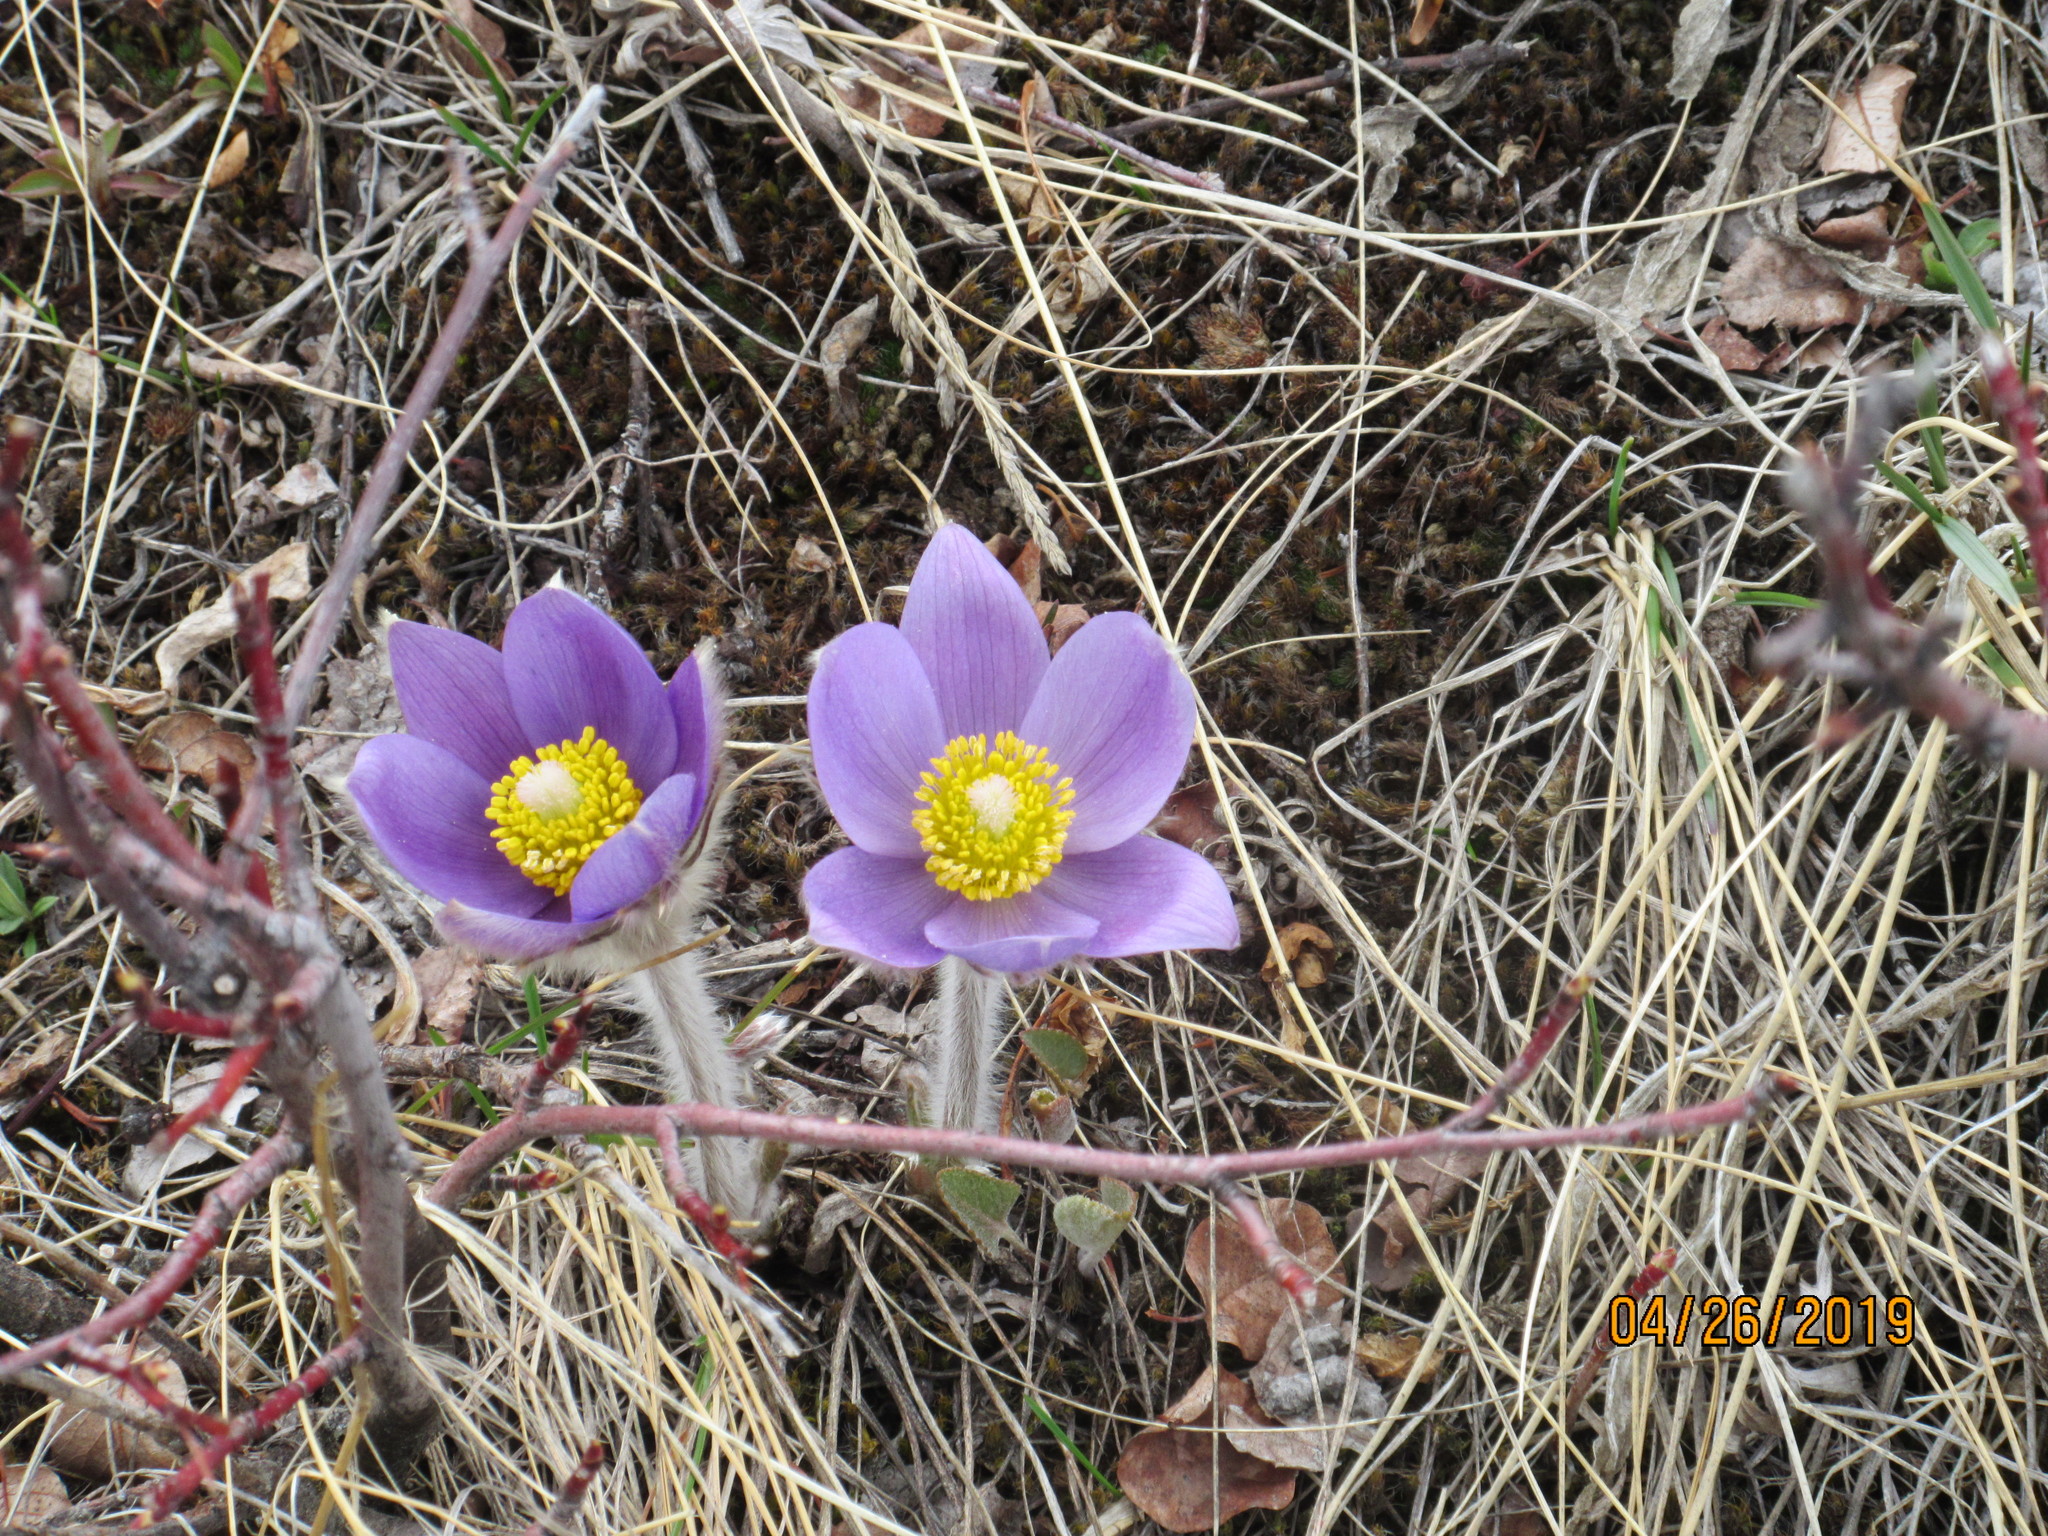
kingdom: Plantae
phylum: Tracheophyta
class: Magnoliopsida
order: Ranunculales
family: Ranunculaceae
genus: Pulsatilla
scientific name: Pulsatilla nuttalliana
